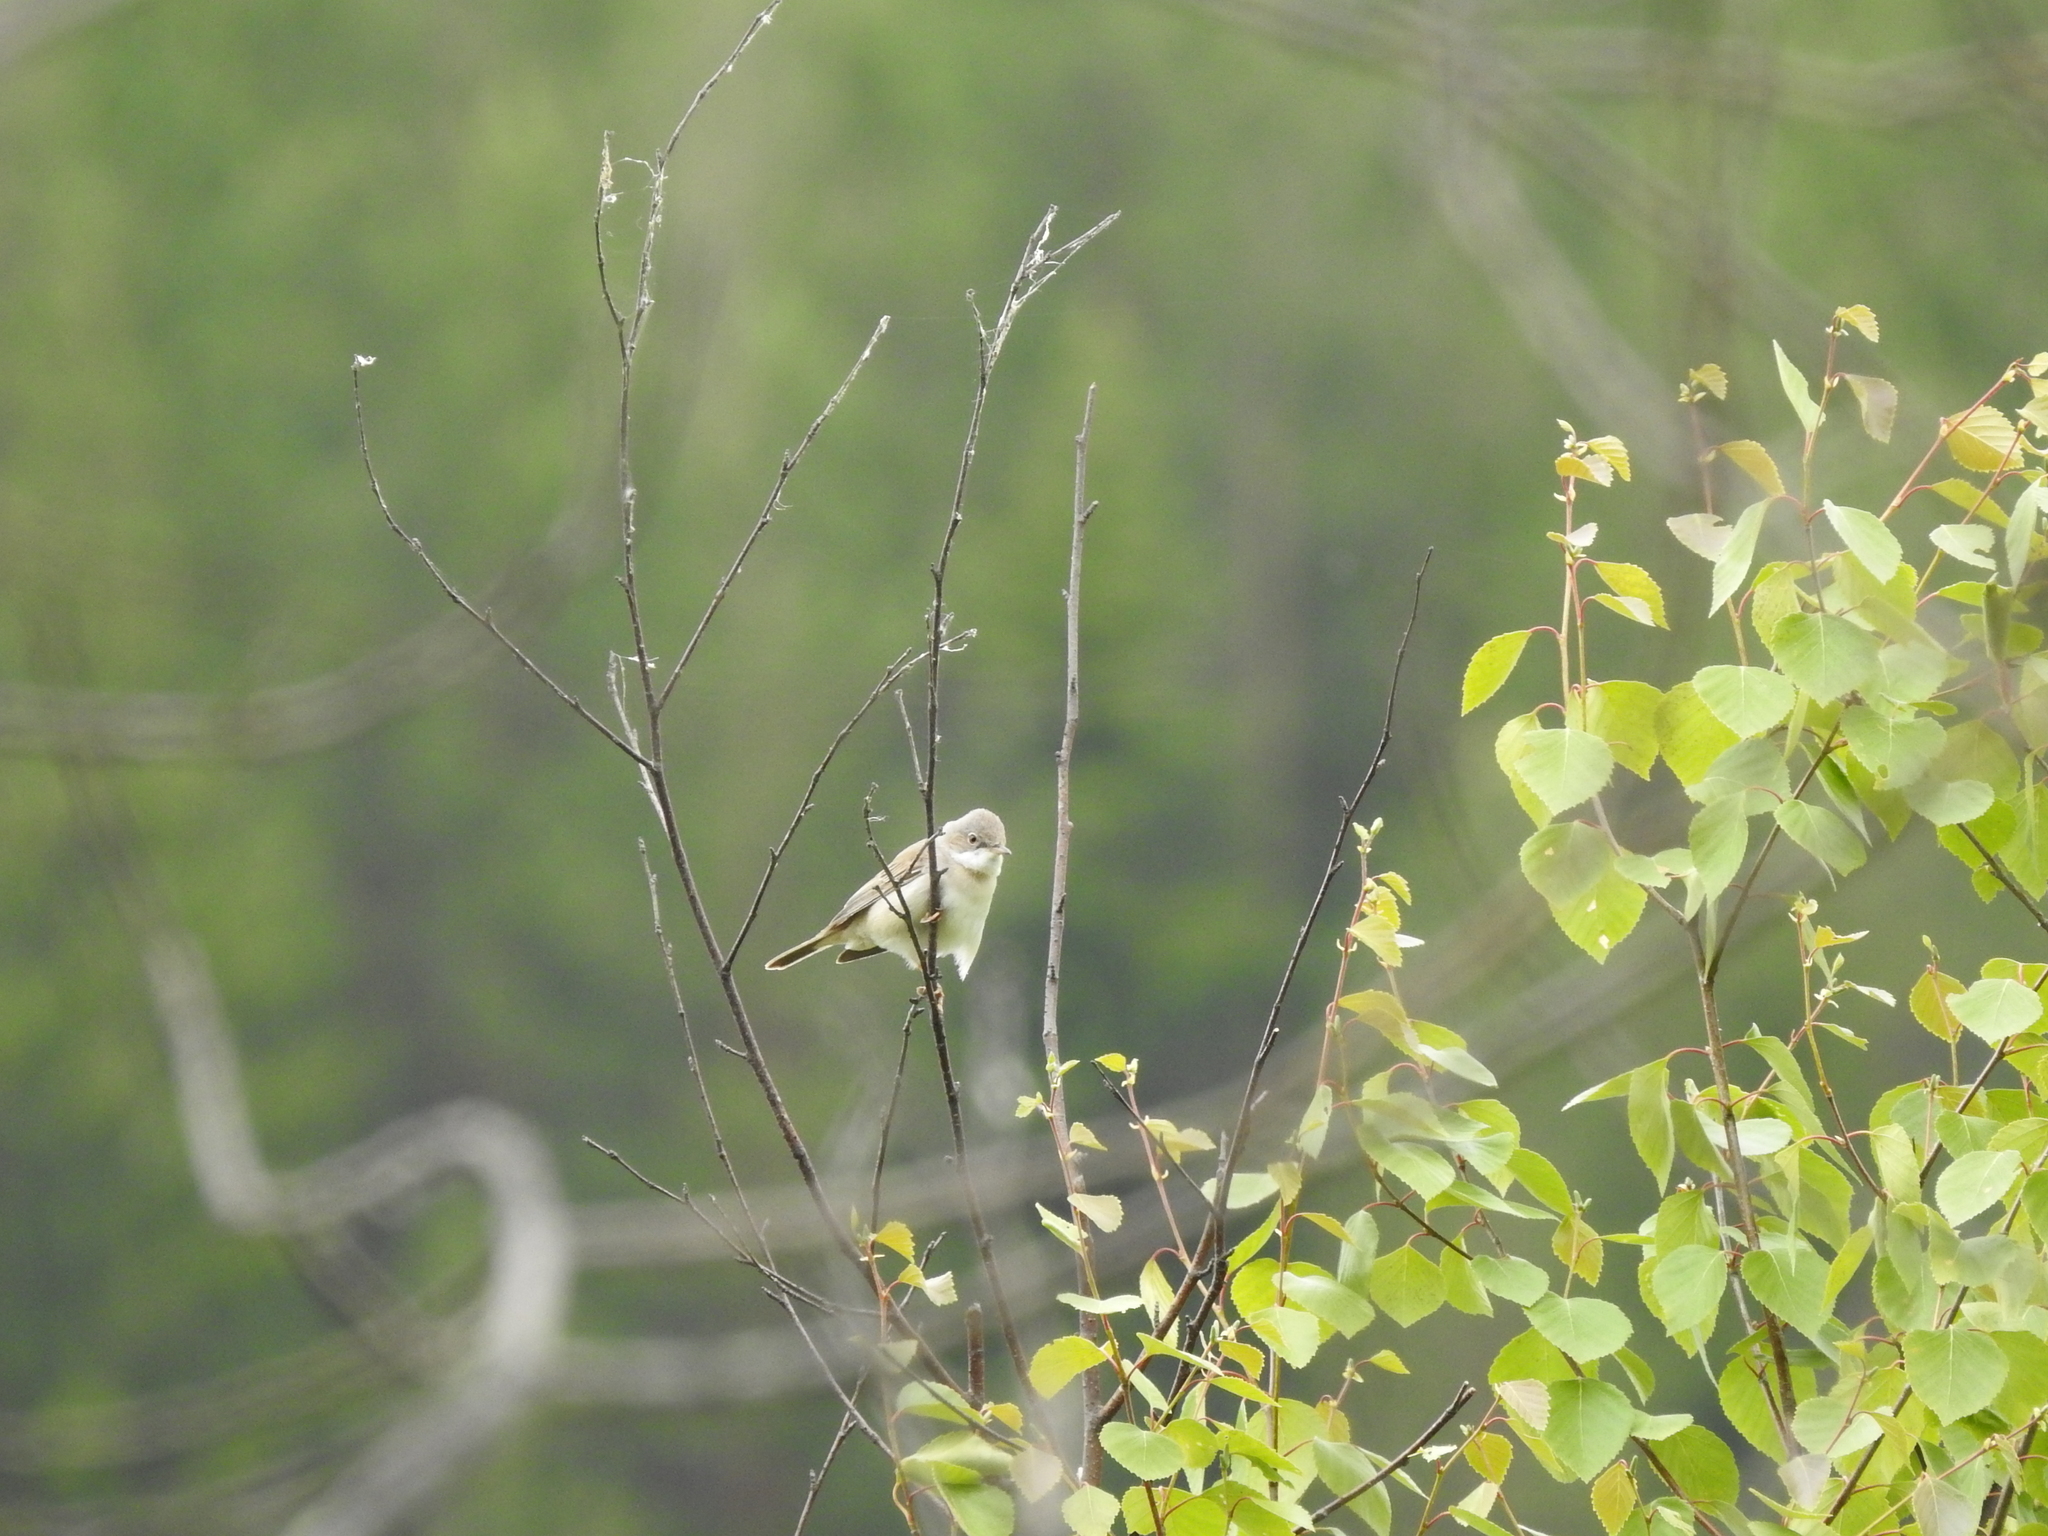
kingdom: Animalia
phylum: Chordata
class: Aves
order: Passeriformes
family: Sylviidae
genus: Sylvia
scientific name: Sylvia communis
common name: Common whitethroat
